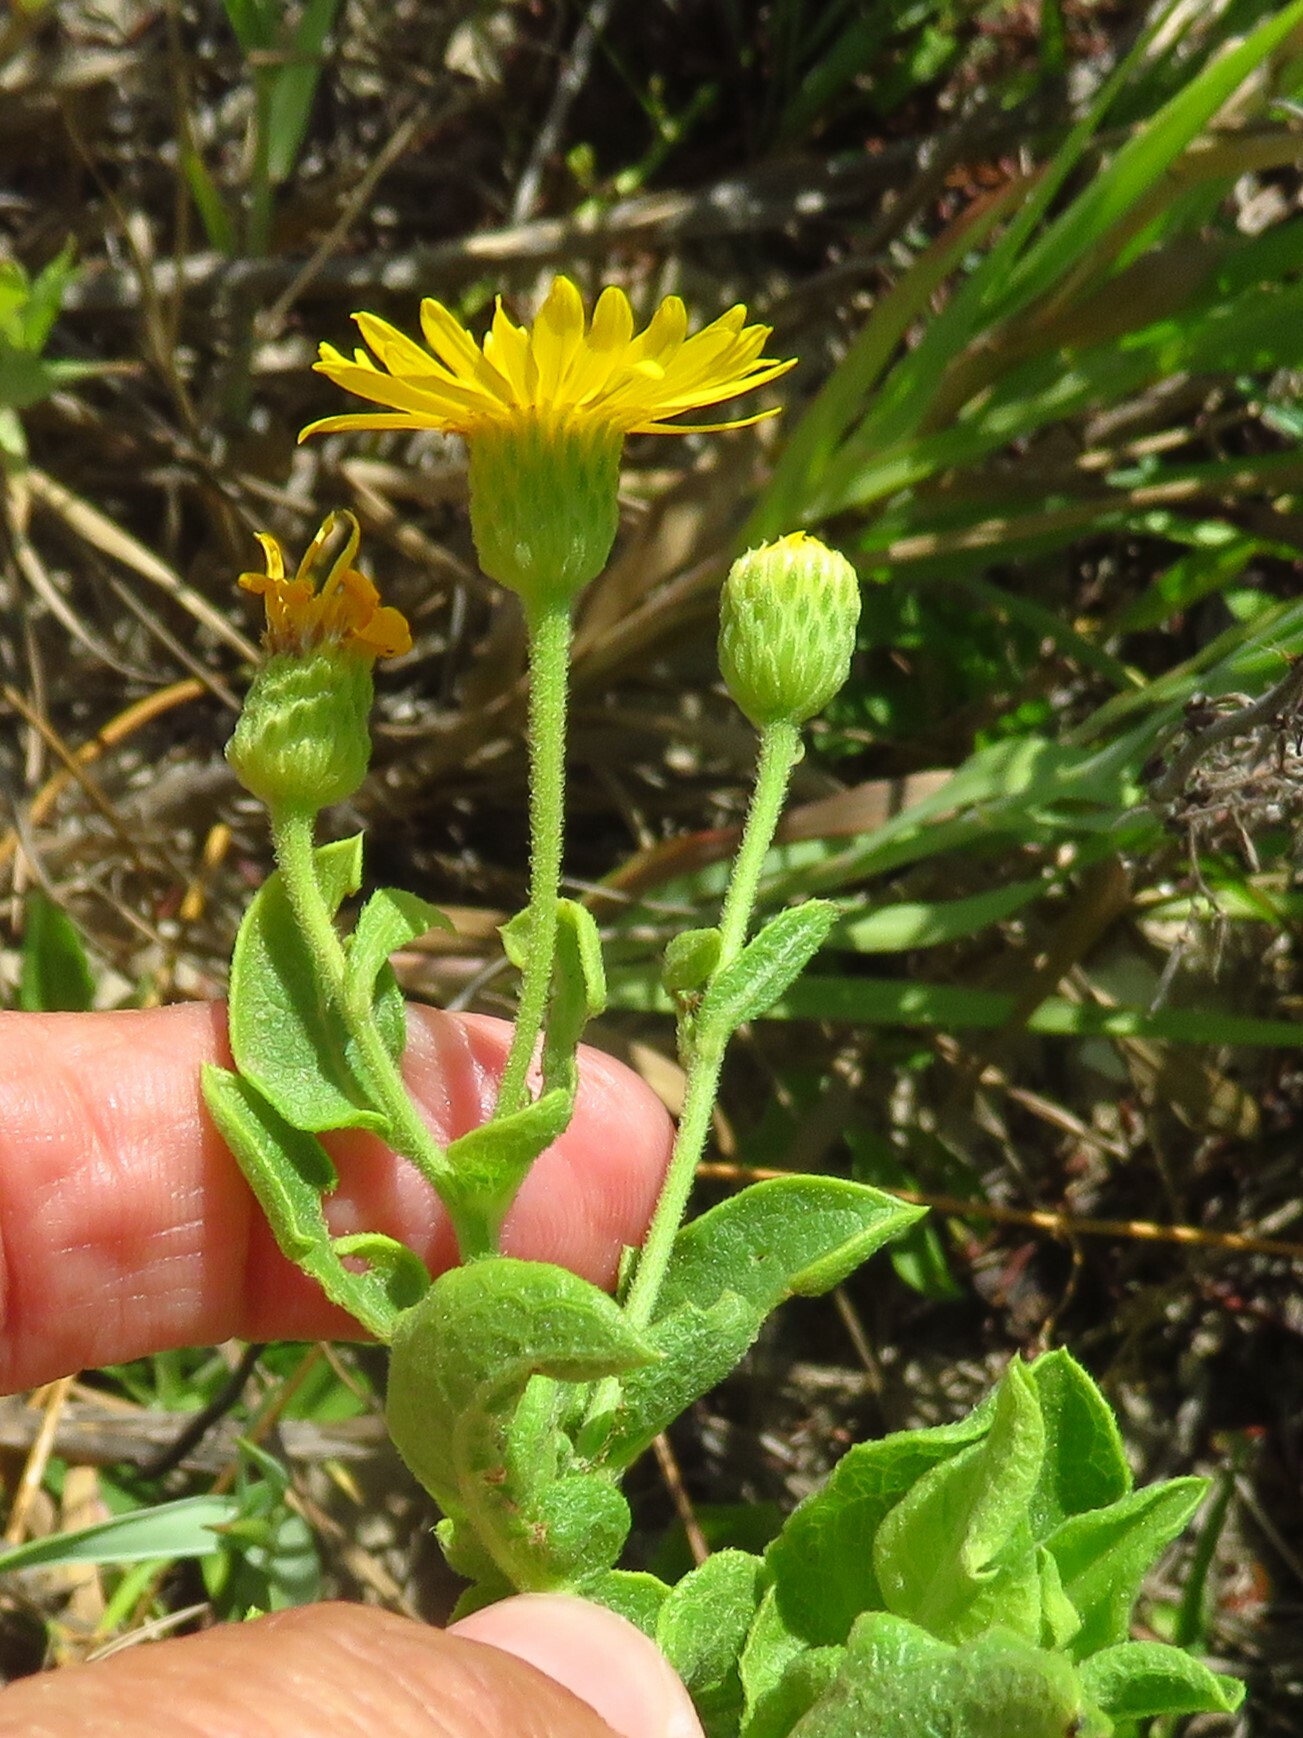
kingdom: Plantae
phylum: Tracheophyta
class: Magnoliopsida
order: Asterales
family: Asteraceae
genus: Heterotheca
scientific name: Heterotheca subaxillaris
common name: Camphorweed
